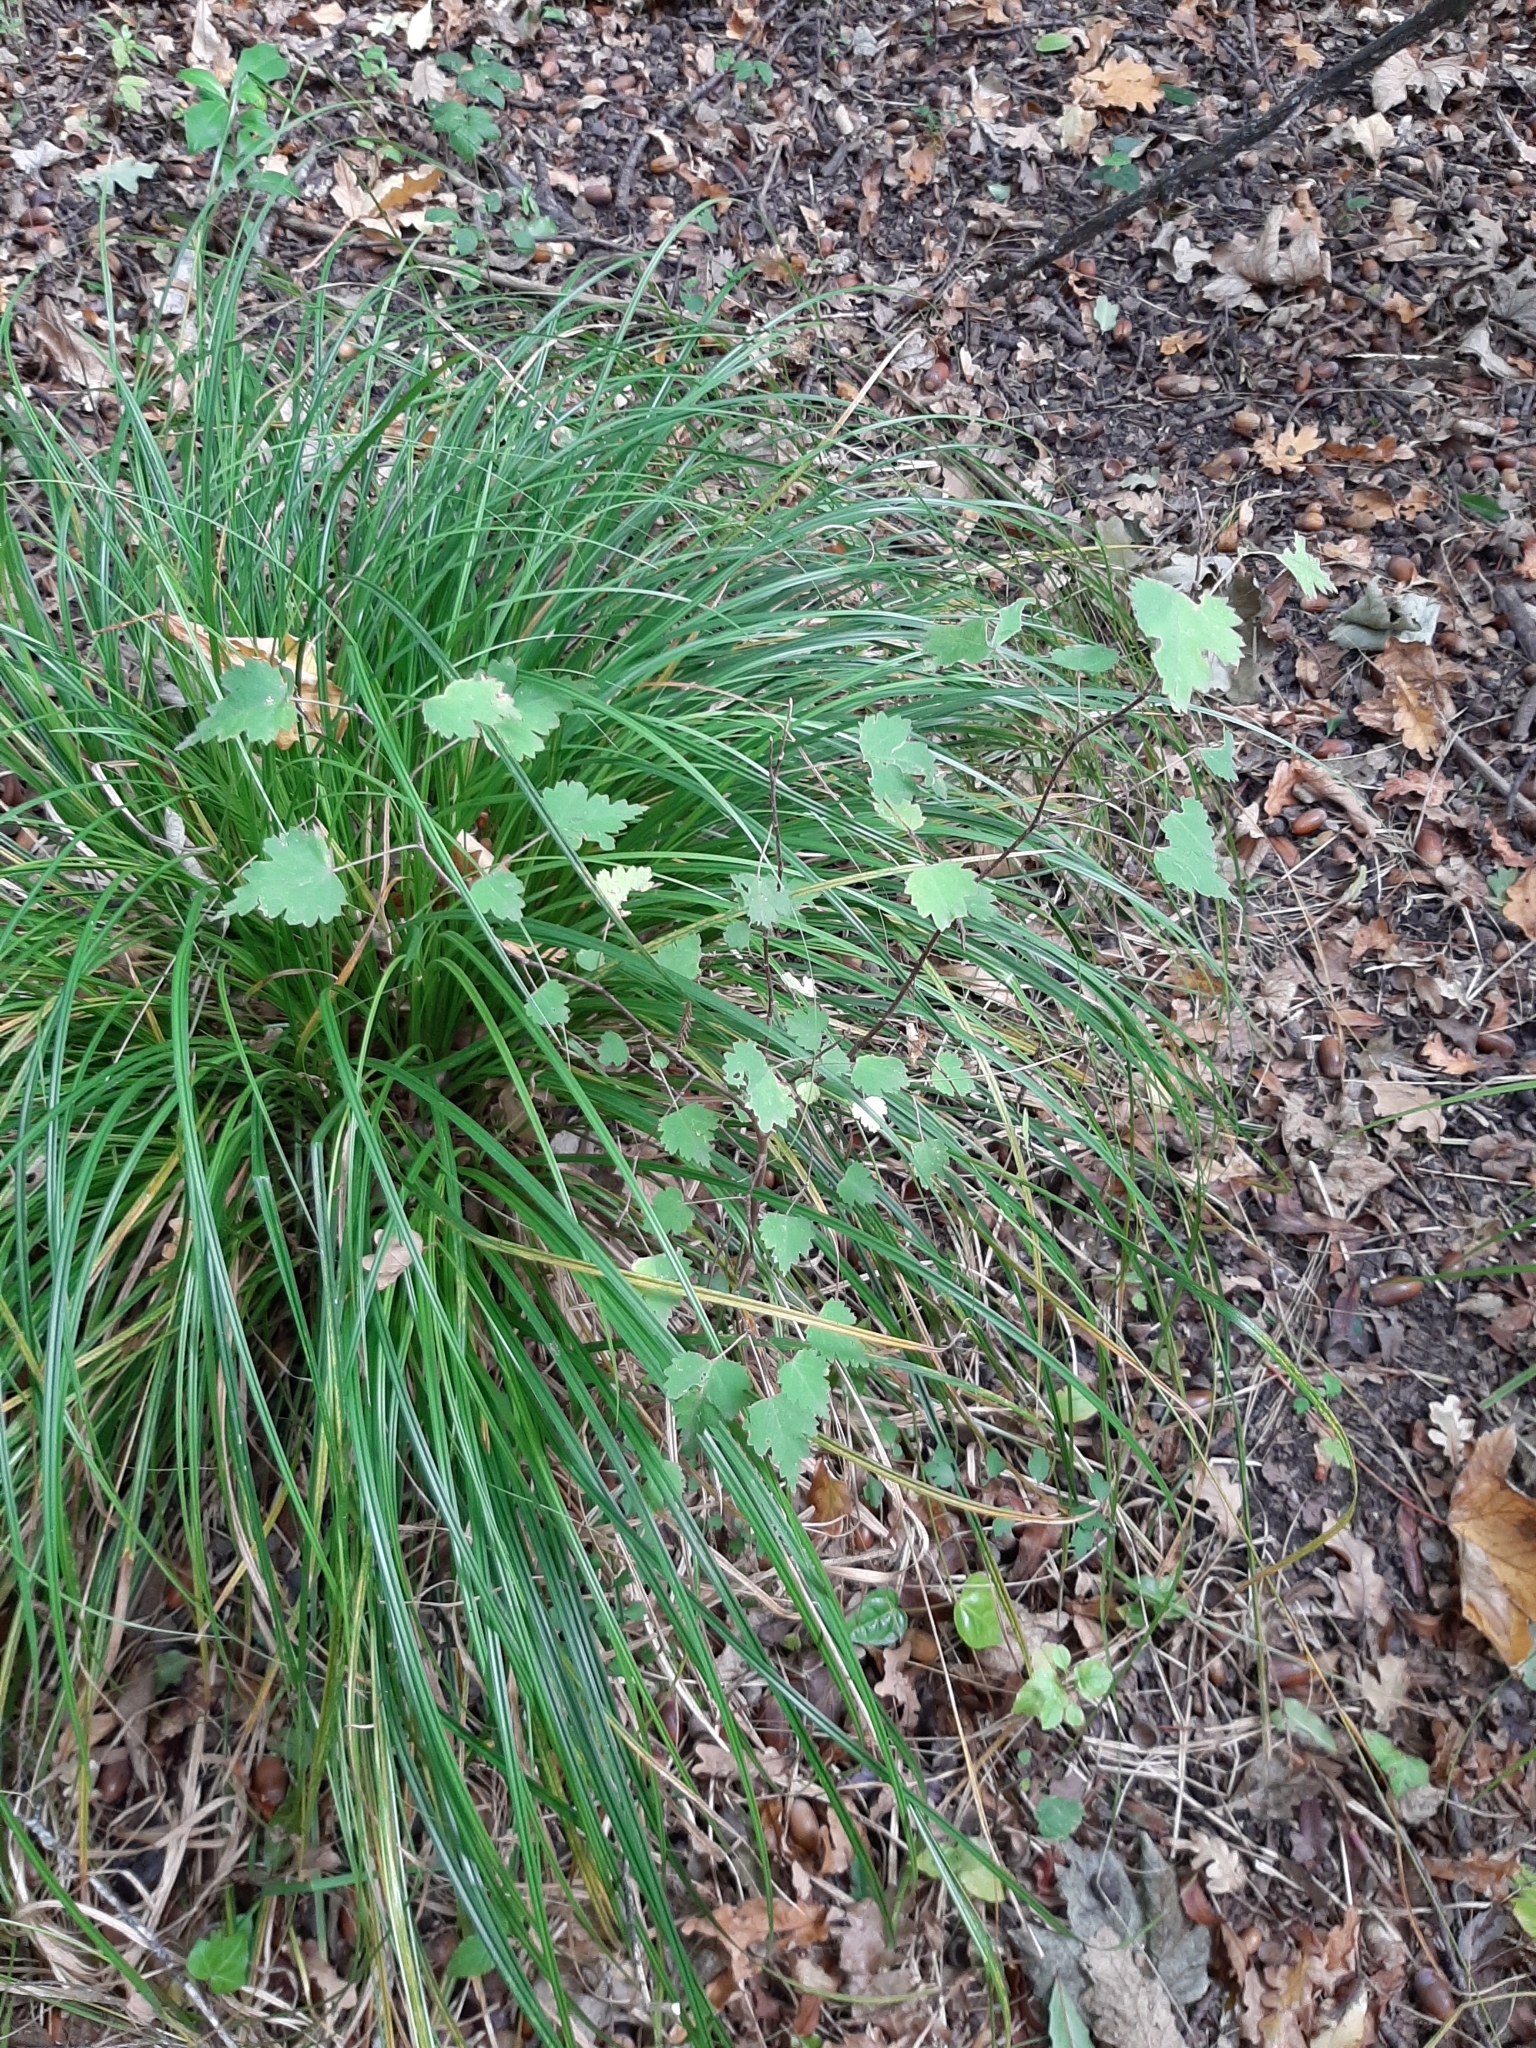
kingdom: Plantae
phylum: Tracheophyta
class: Magnoliopsida
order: Malvales
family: Malvaceae
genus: Plagianthus
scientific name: Plagianthus regius
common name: Manatu
